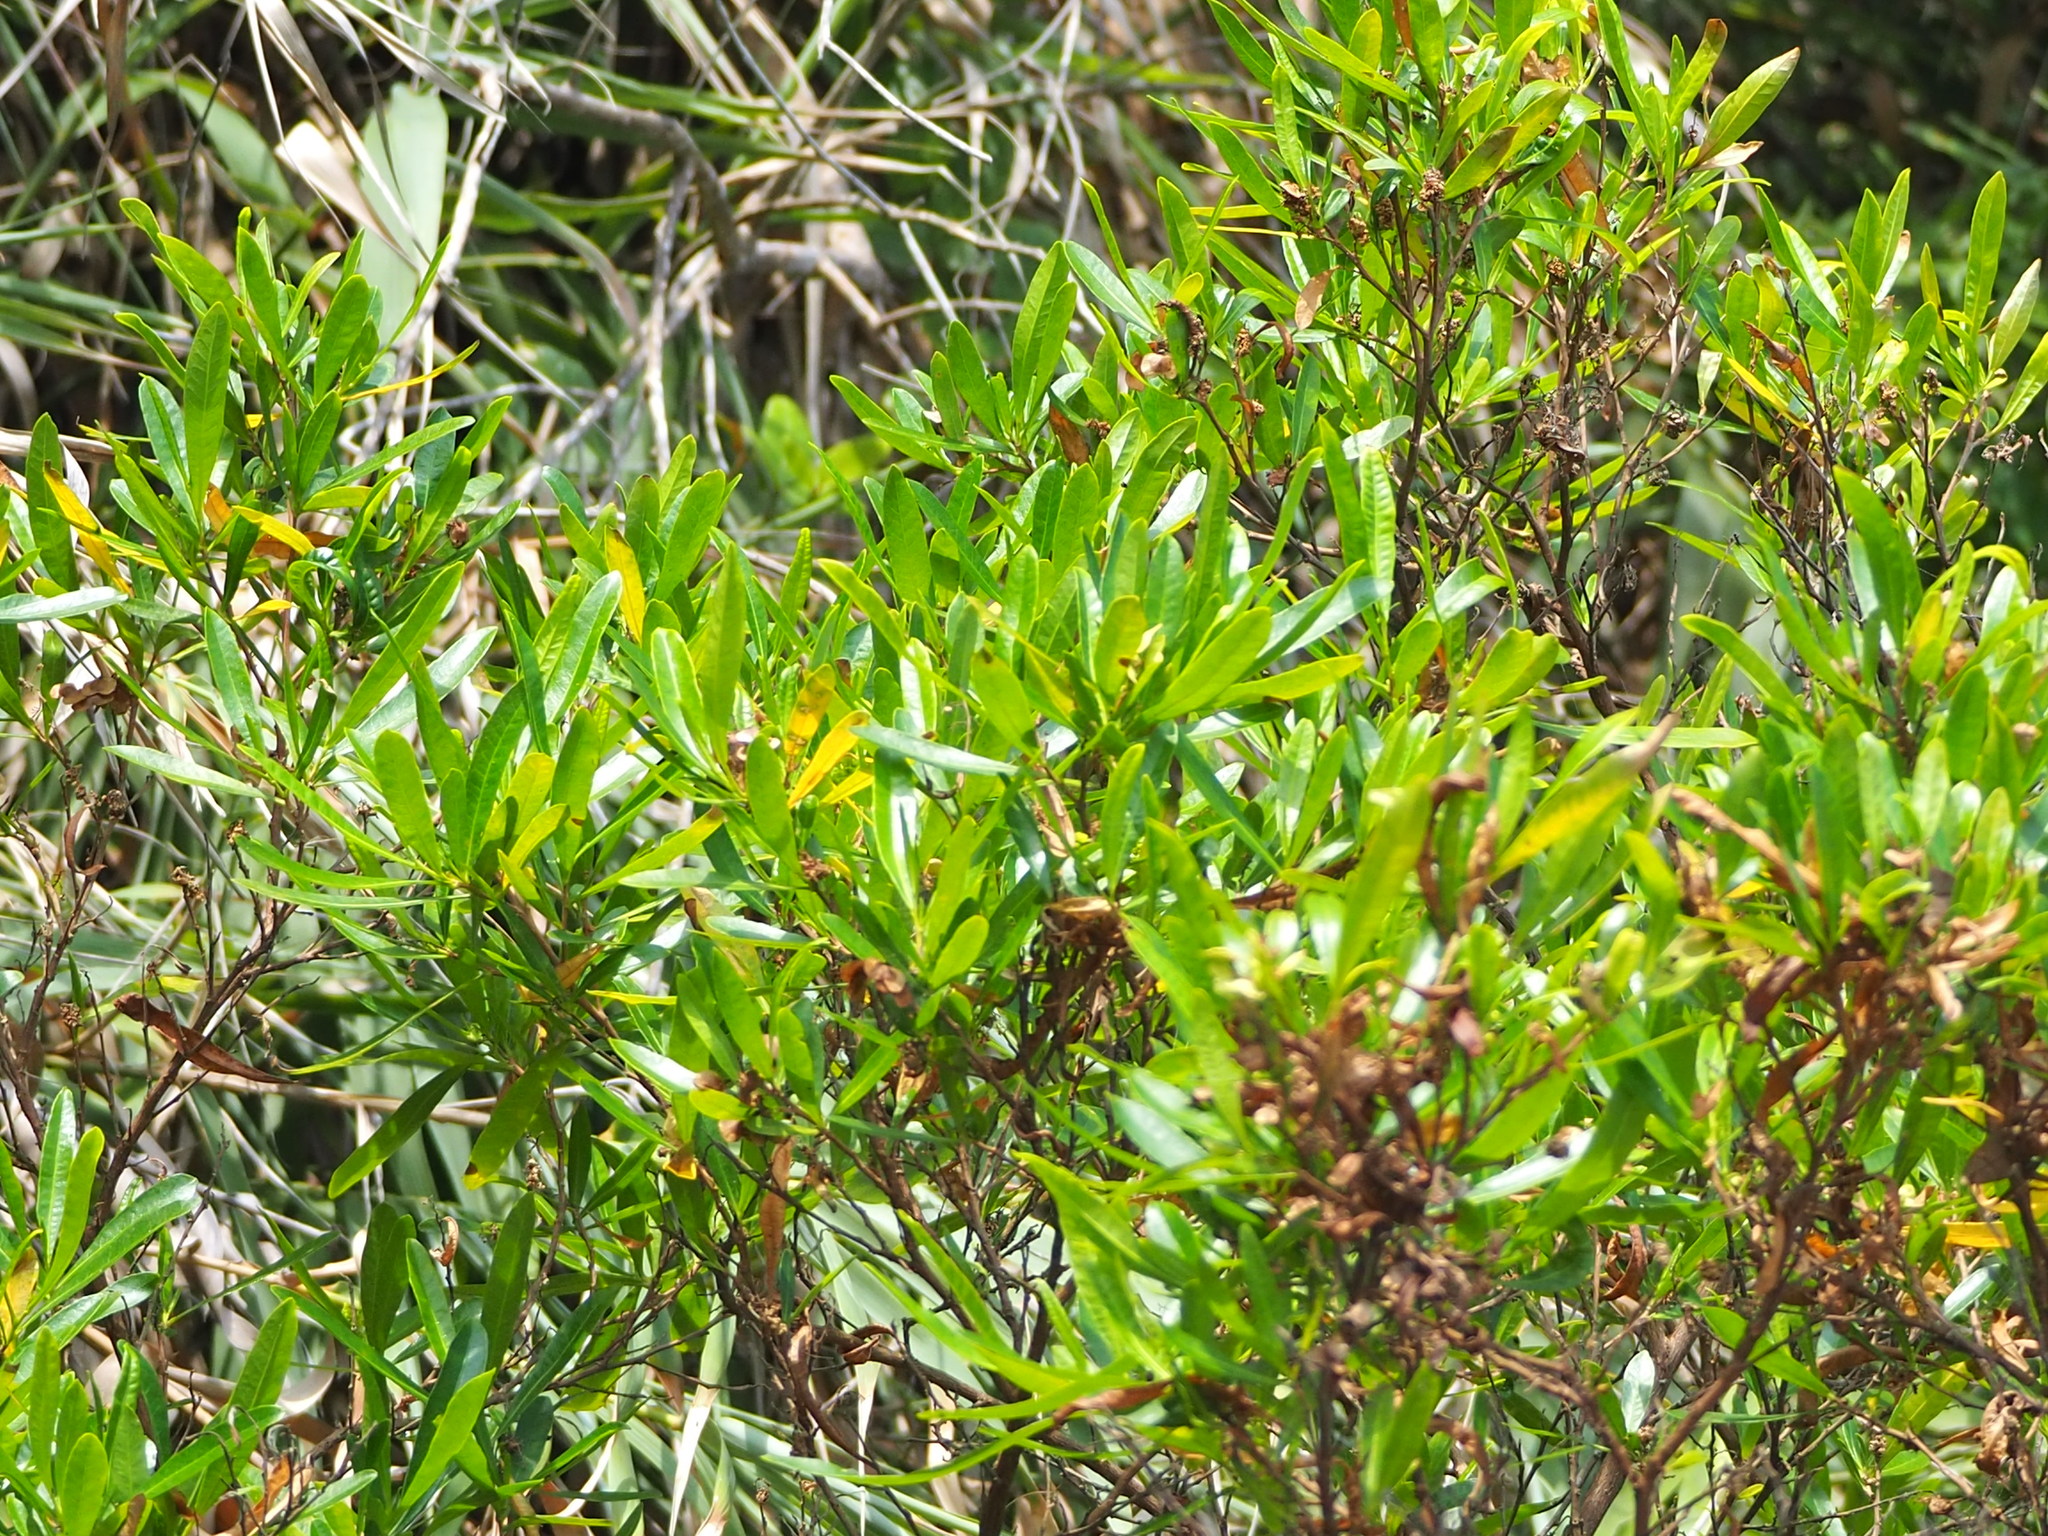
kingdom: Plantae
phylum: Tracheophyta
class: Magnoliopsida
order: Sapindales
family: Sapindaceae
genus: Dodonaea
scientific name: Dodonaea viscosa
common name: Hopbush
